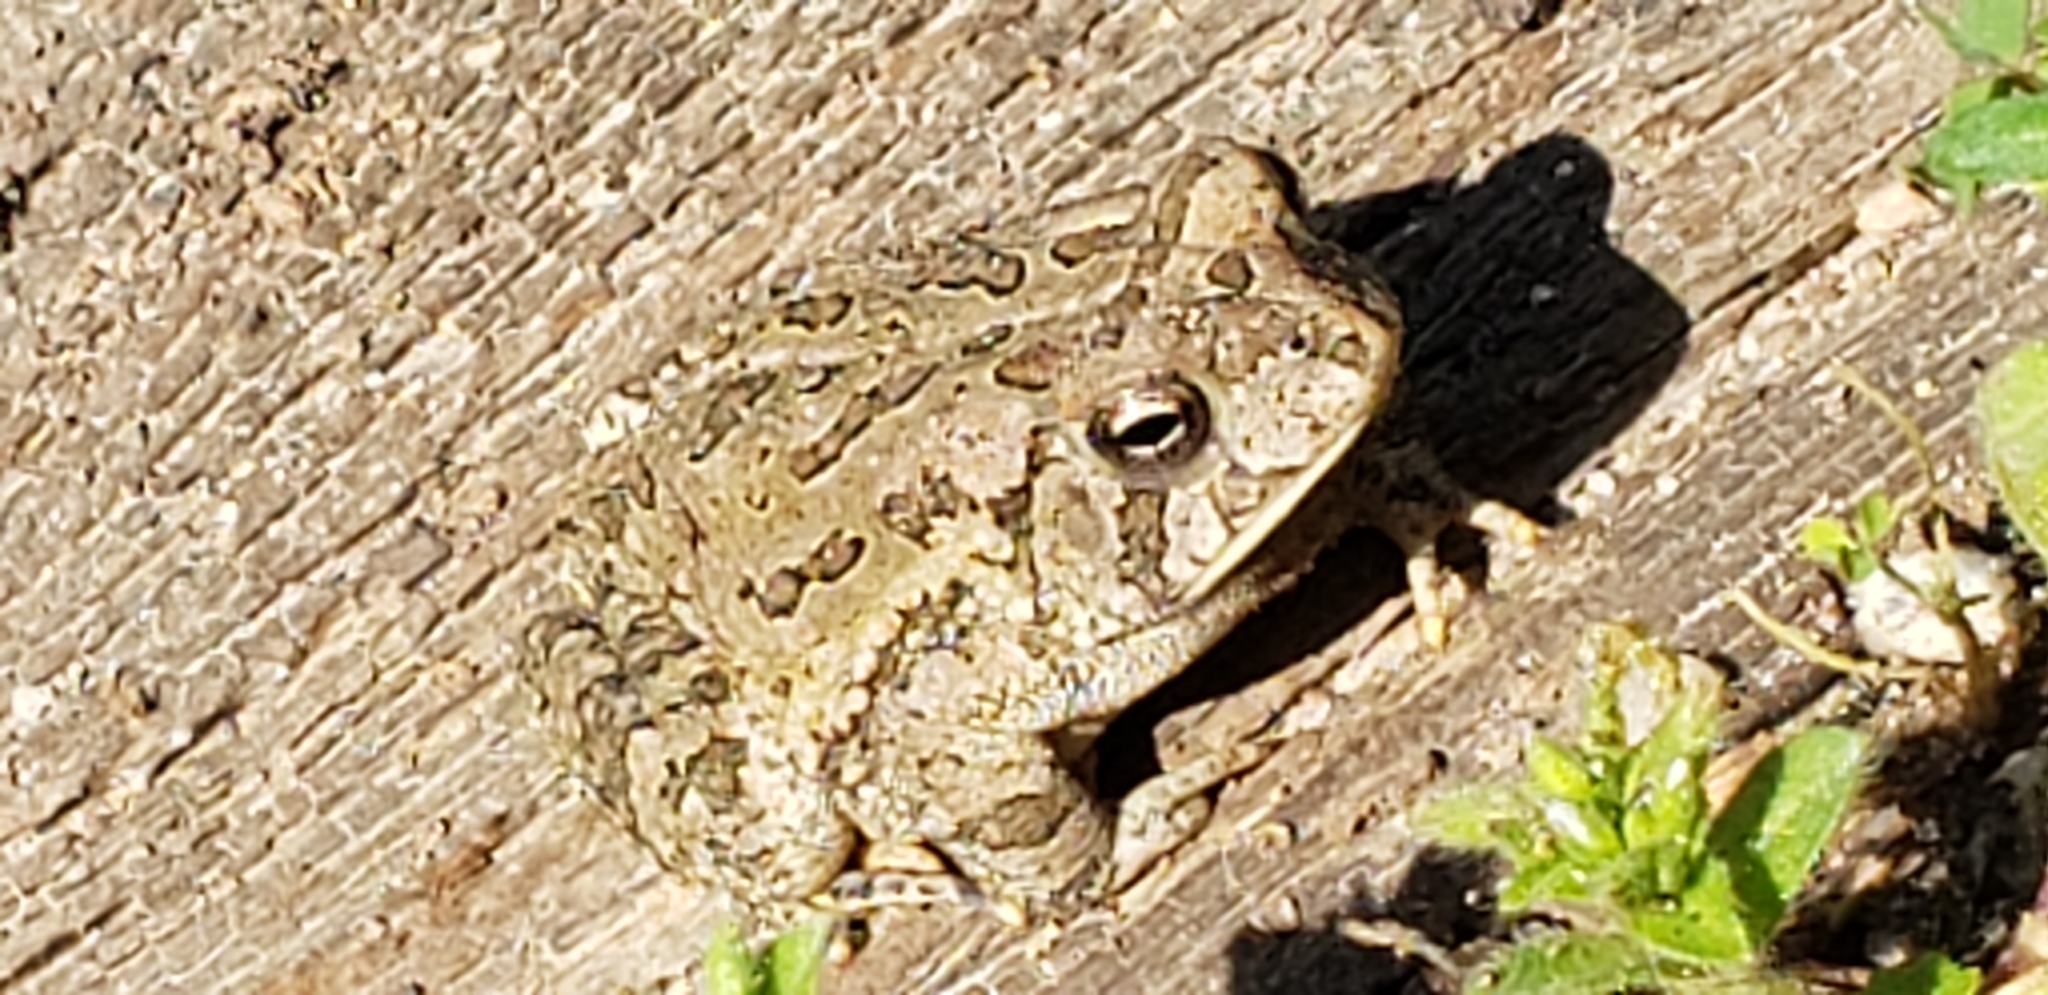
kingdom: Animalia
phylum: Chordata
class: Amphibia
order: Anura
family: Bufonidae
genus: Anaxyrus
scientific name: Anaxyrus fowleri
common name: Fowler's toad
